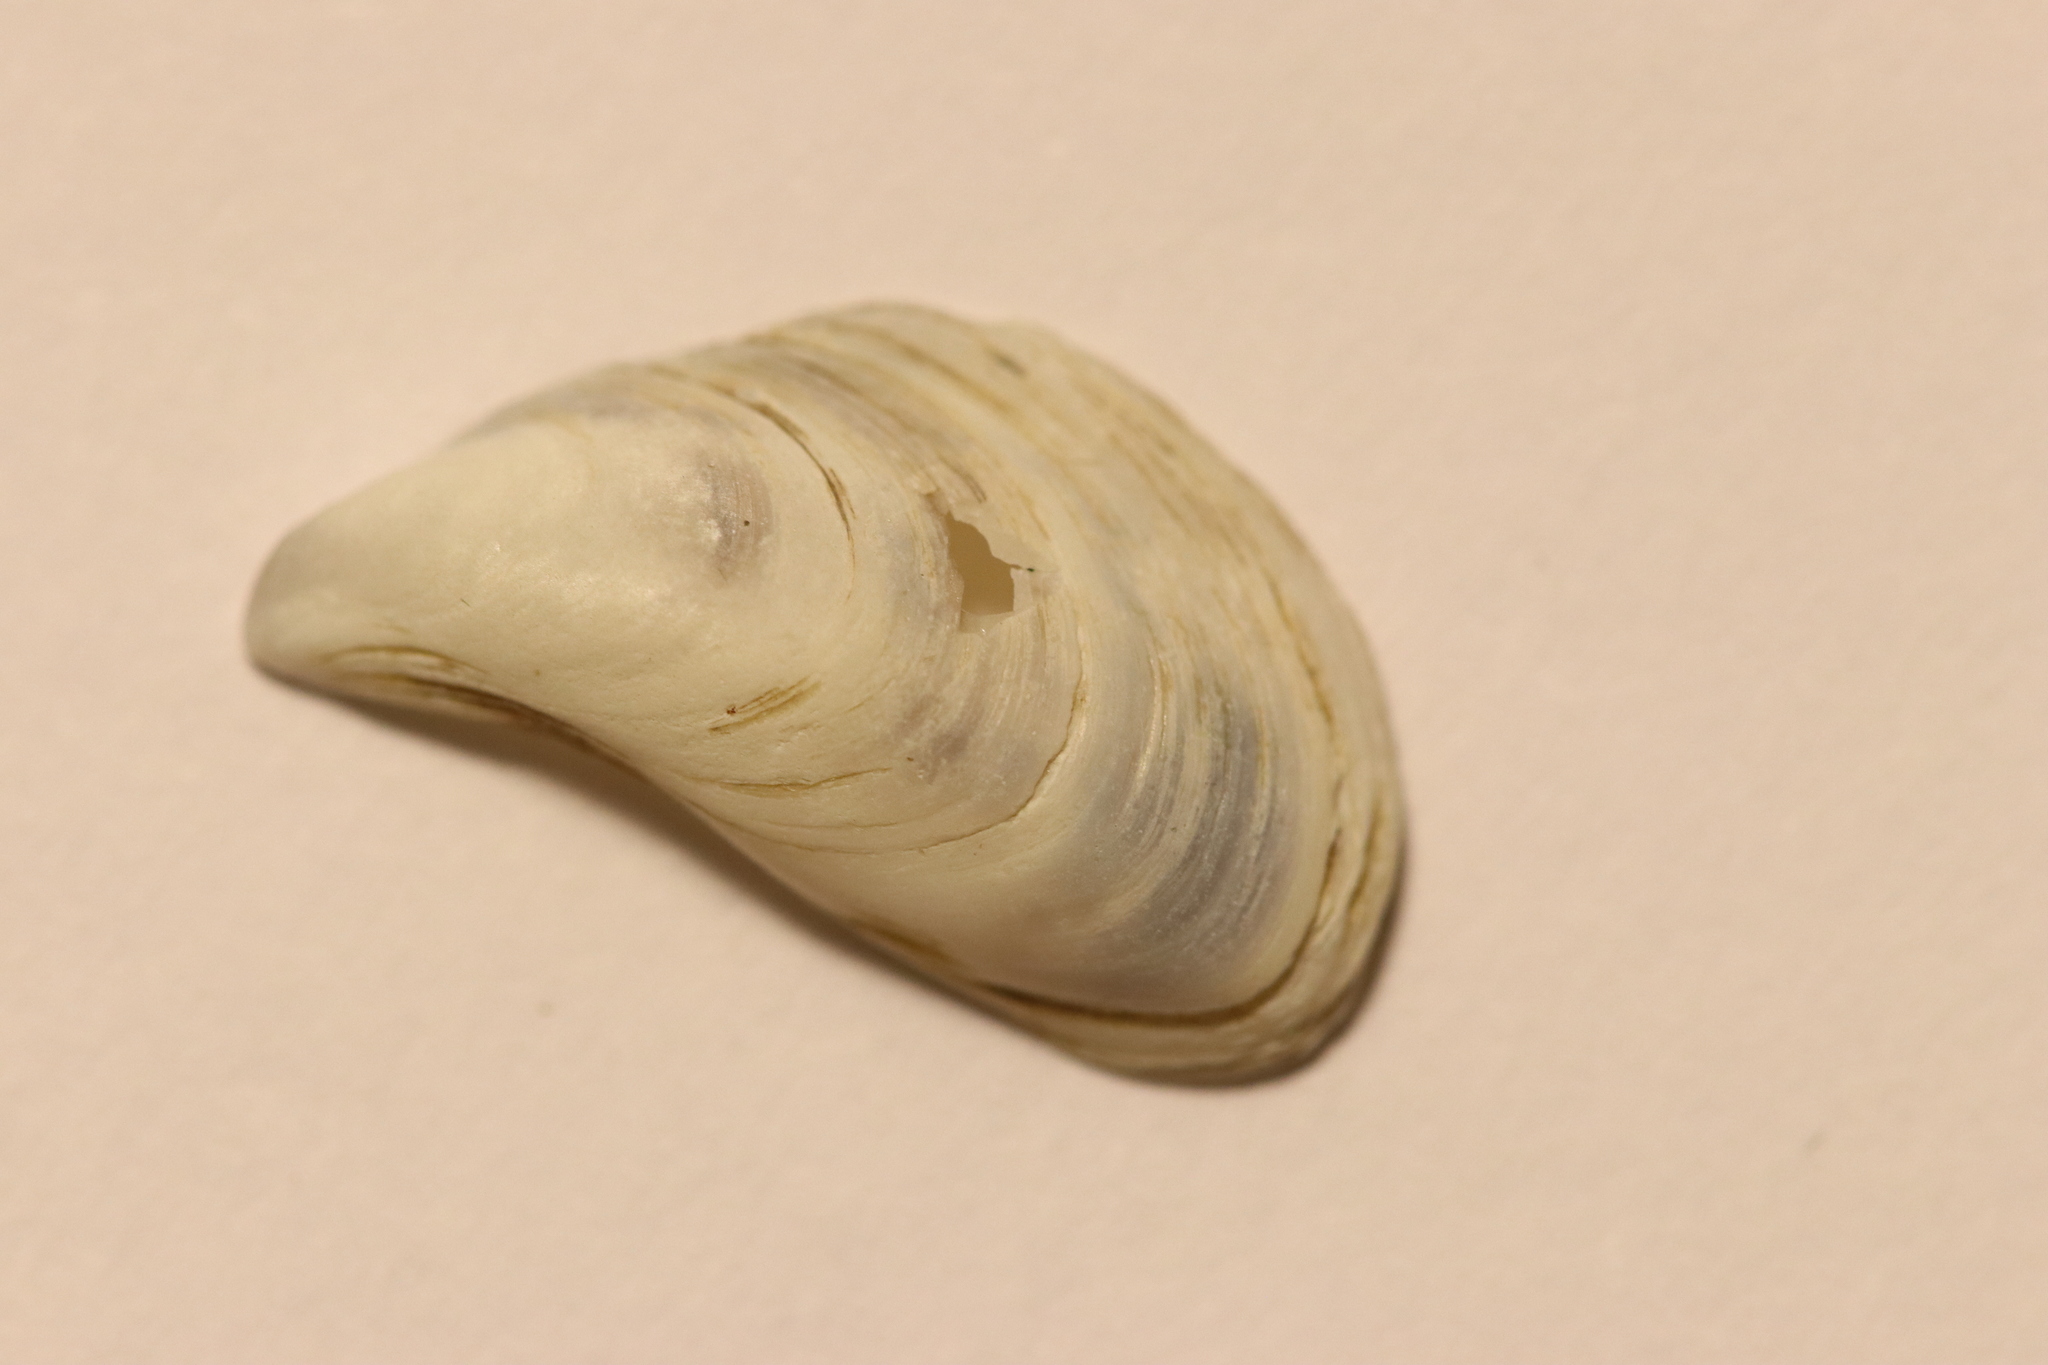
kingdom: Animalia
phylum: Mollusca
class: Bivalvia
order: Myida
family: Dreissenidae
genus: Dreissena
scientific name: Dreissena bugensis
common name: Quagga mussel
